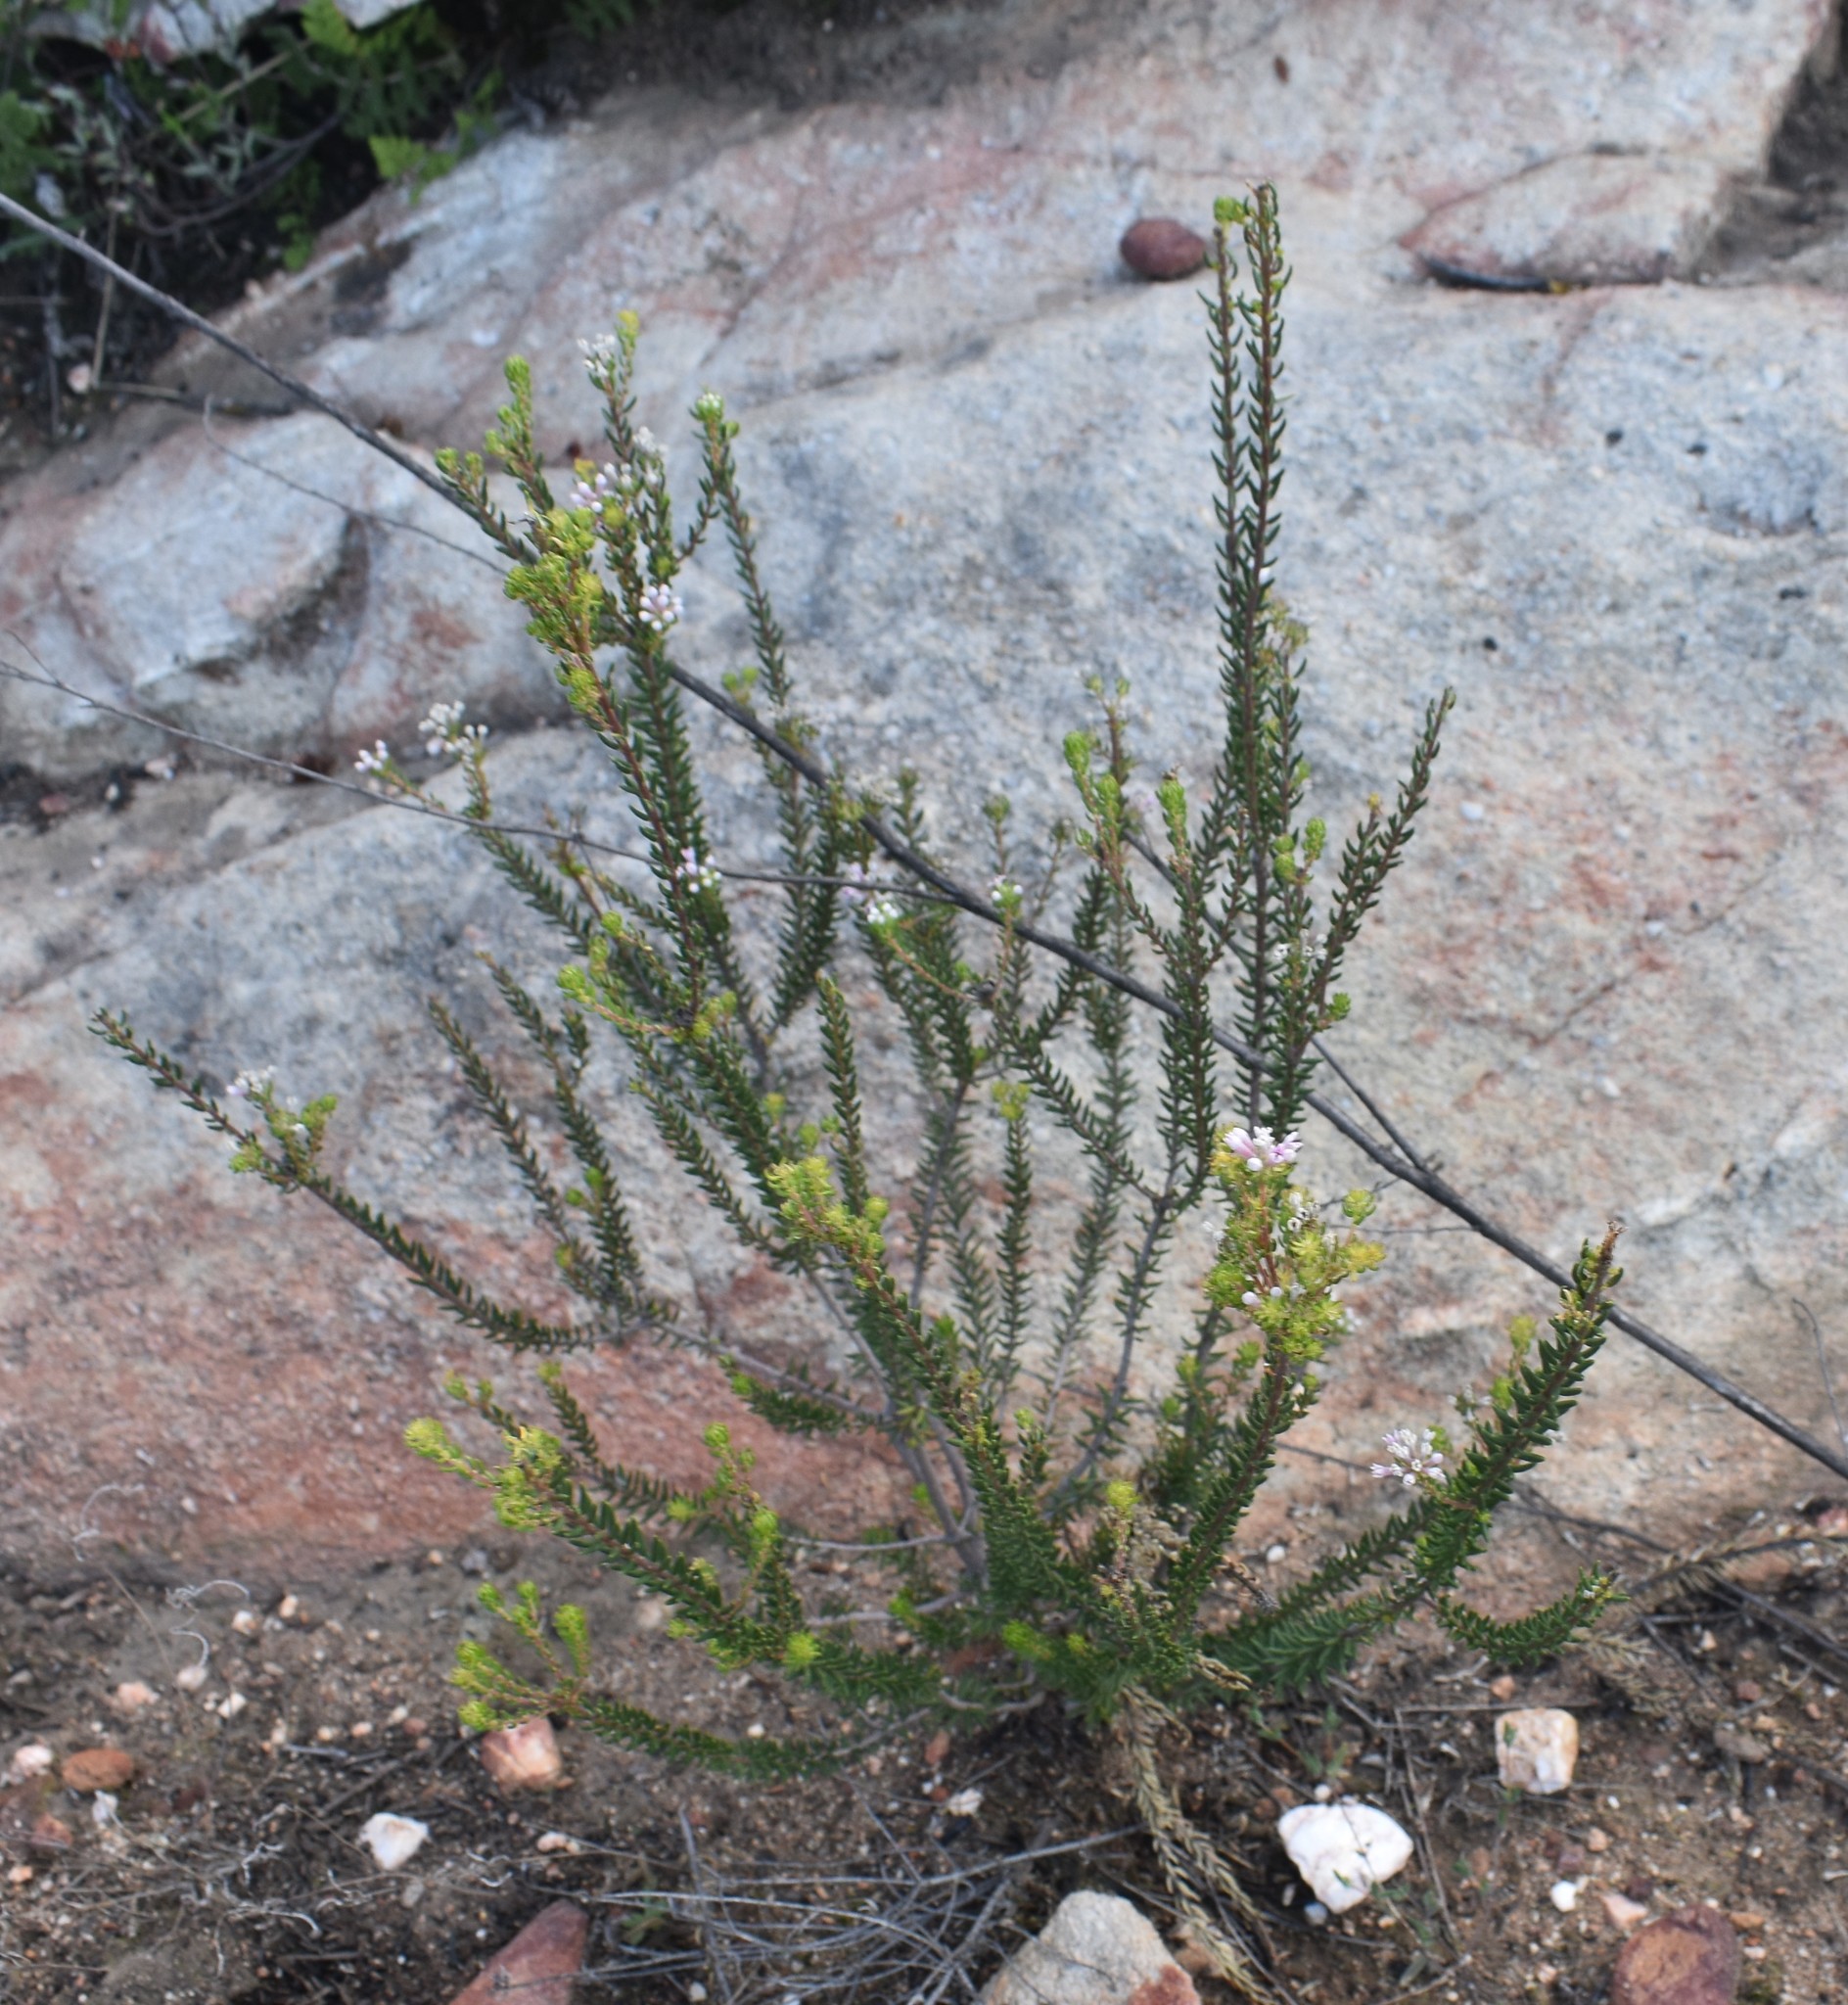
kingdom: Plantae
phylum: Tracheophyta
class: Magnoliopsida
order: Rosales
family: Rhamnaceae
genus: Phylica
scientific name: Phylica lachneaeoides
